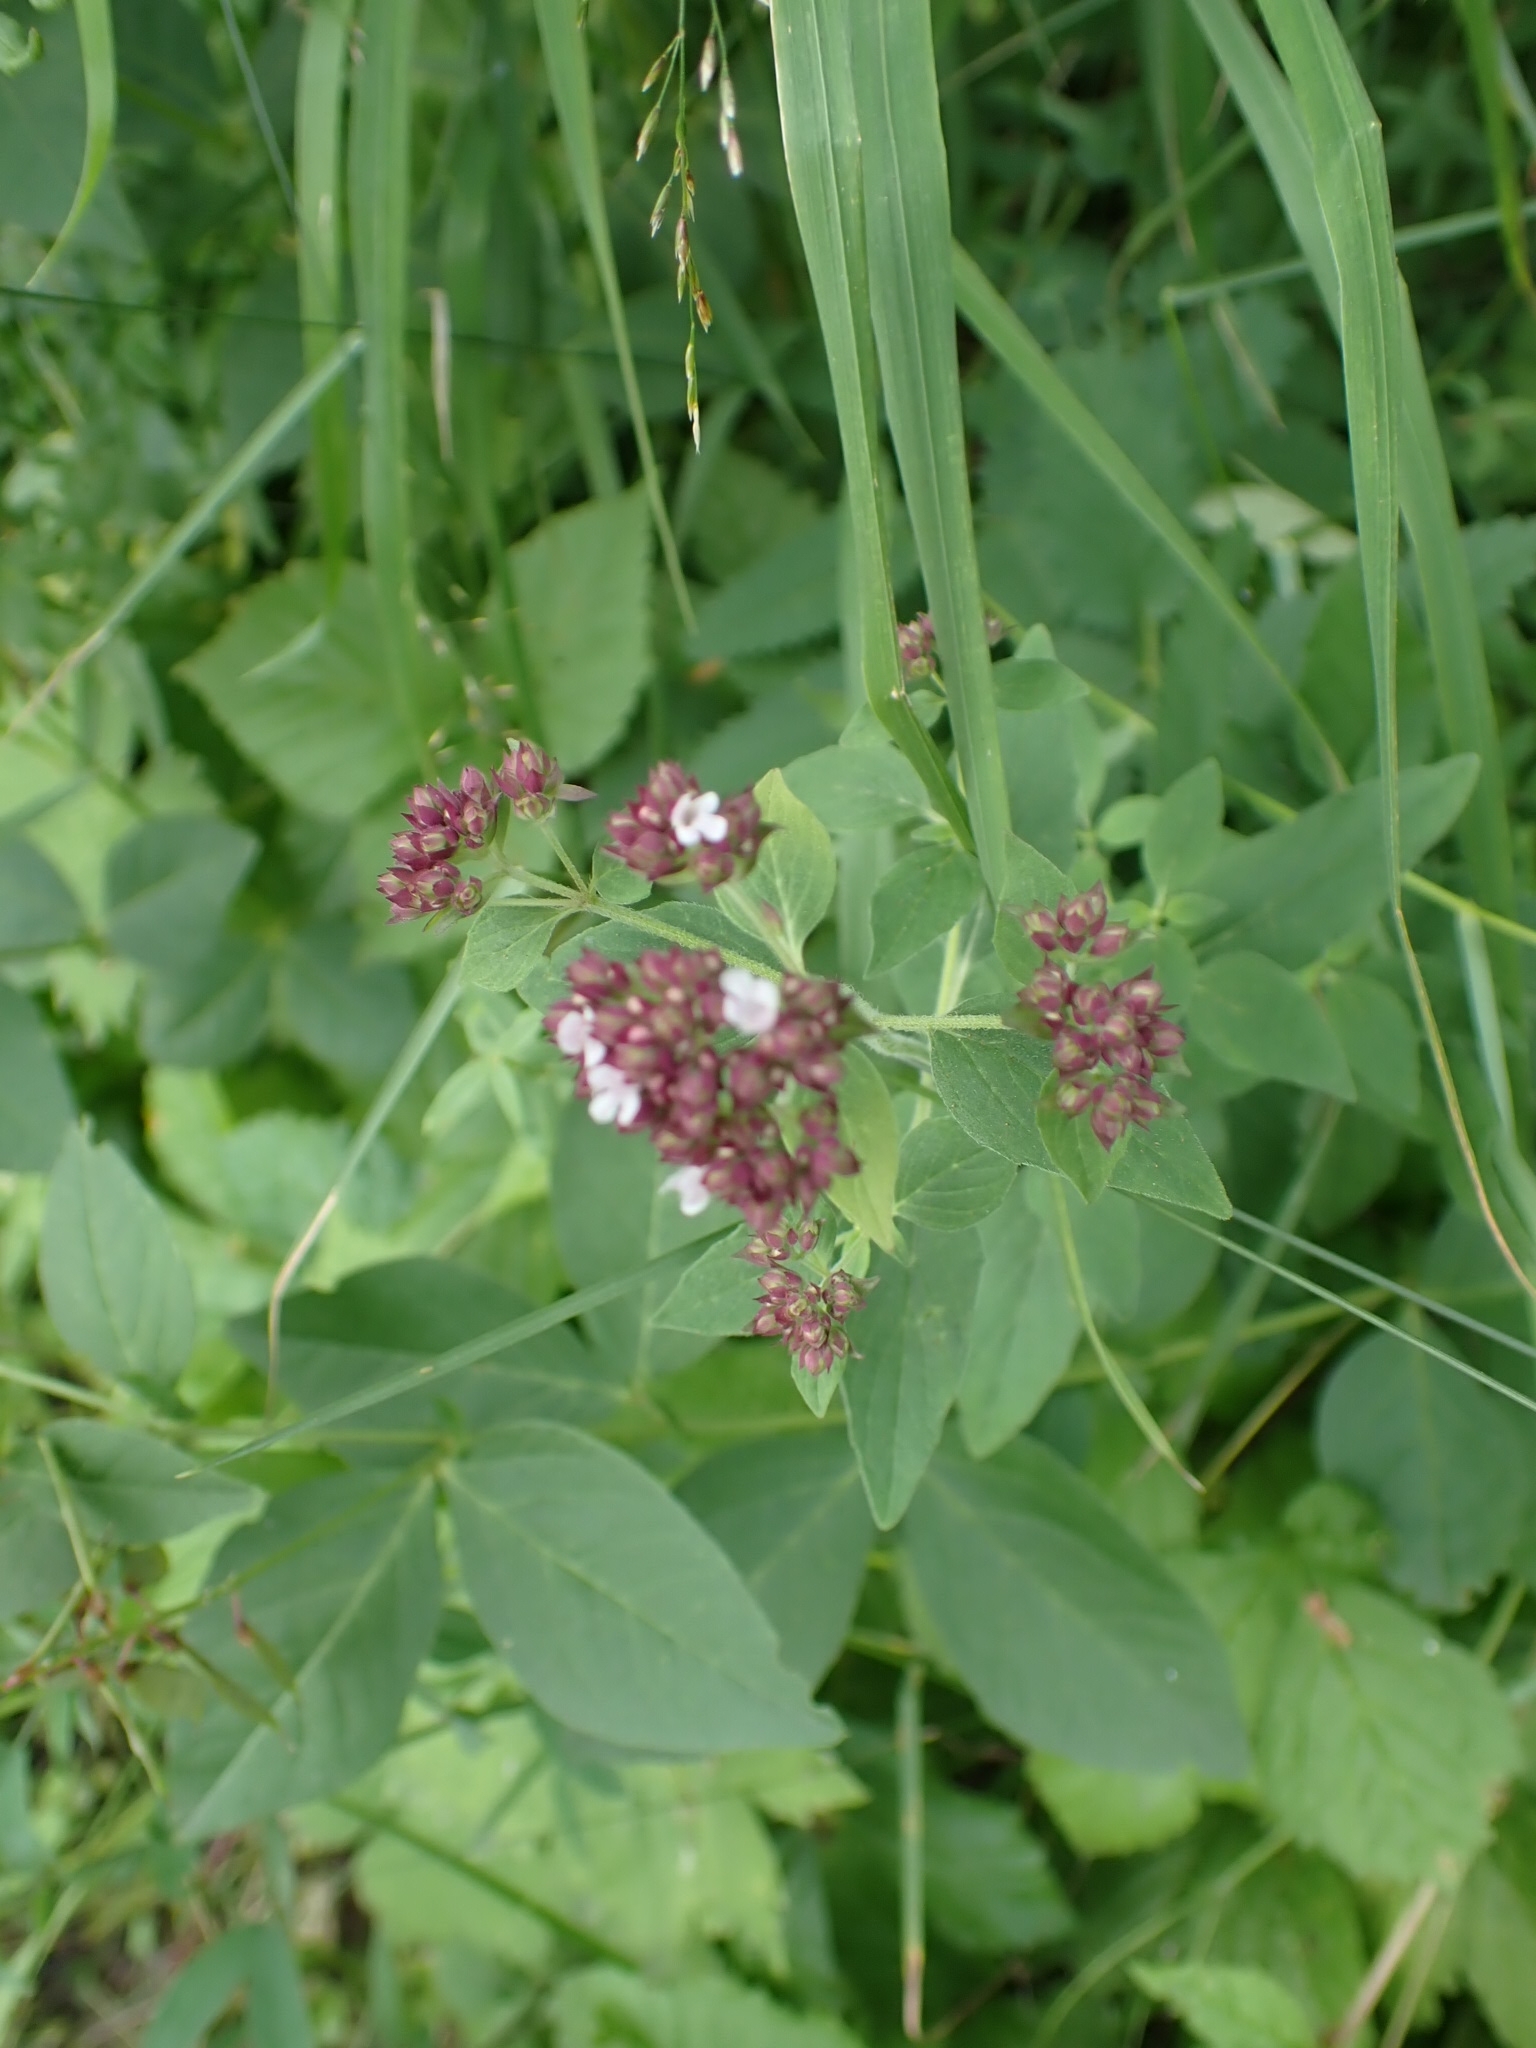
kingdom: Plantae
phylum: Tracheophyta
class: Magnoliopsida
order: Lamiales
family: Lamiaceae
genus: Origanum
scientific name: Origanum vulgare
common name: Wild marjoram
